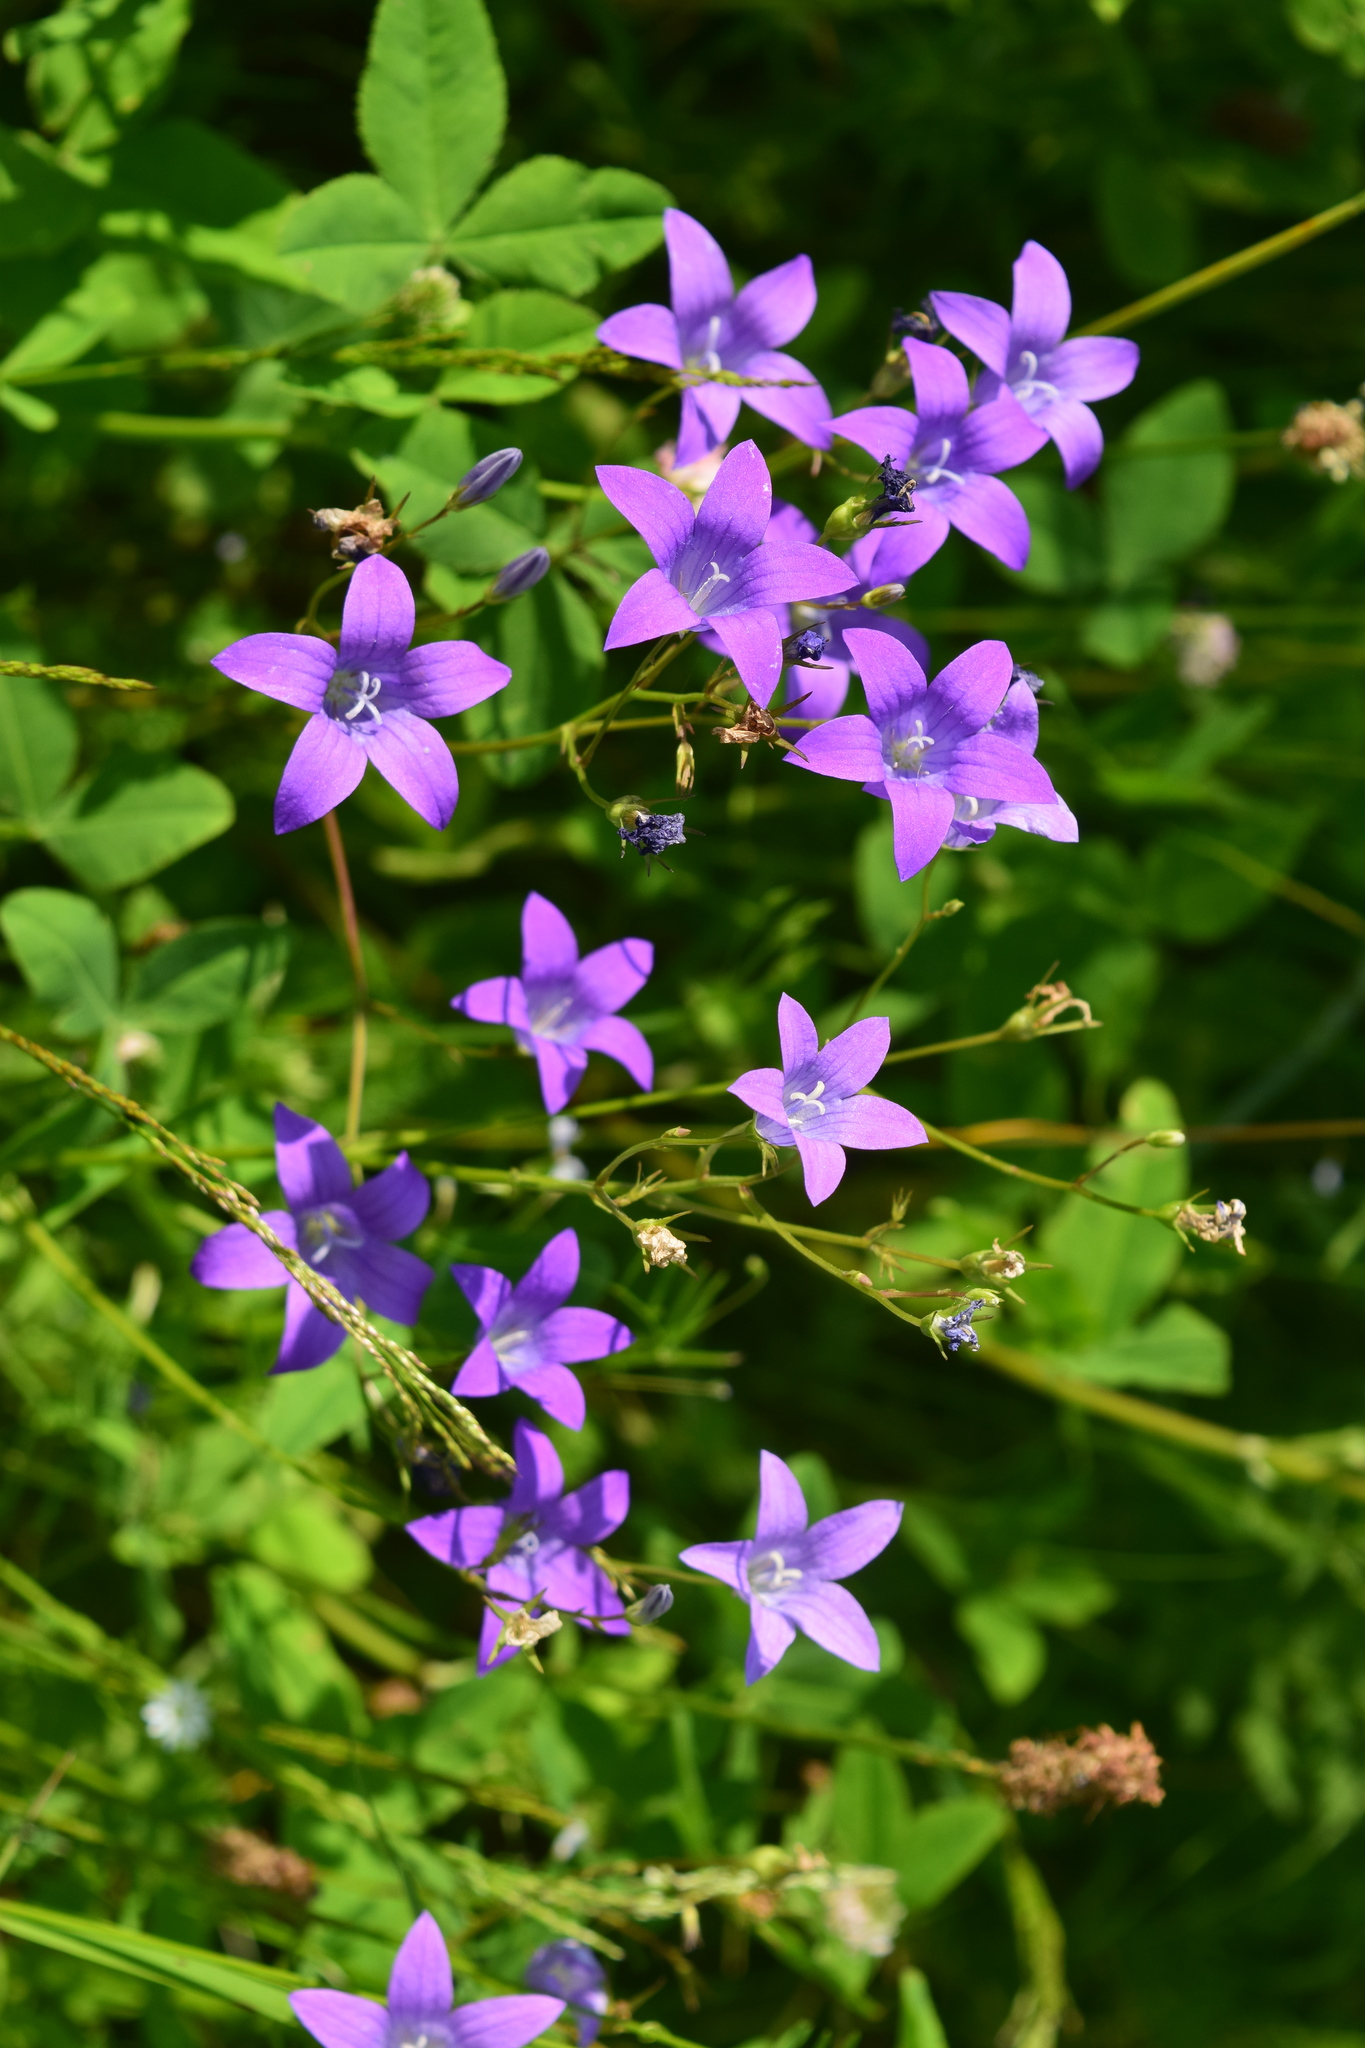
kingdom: Plantae
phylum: Tracheophyta
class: Magnoliopsida
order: Asterales
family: Campanulaceae
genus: Campanula
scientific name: Campanula patula
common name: Spreading bellflower
